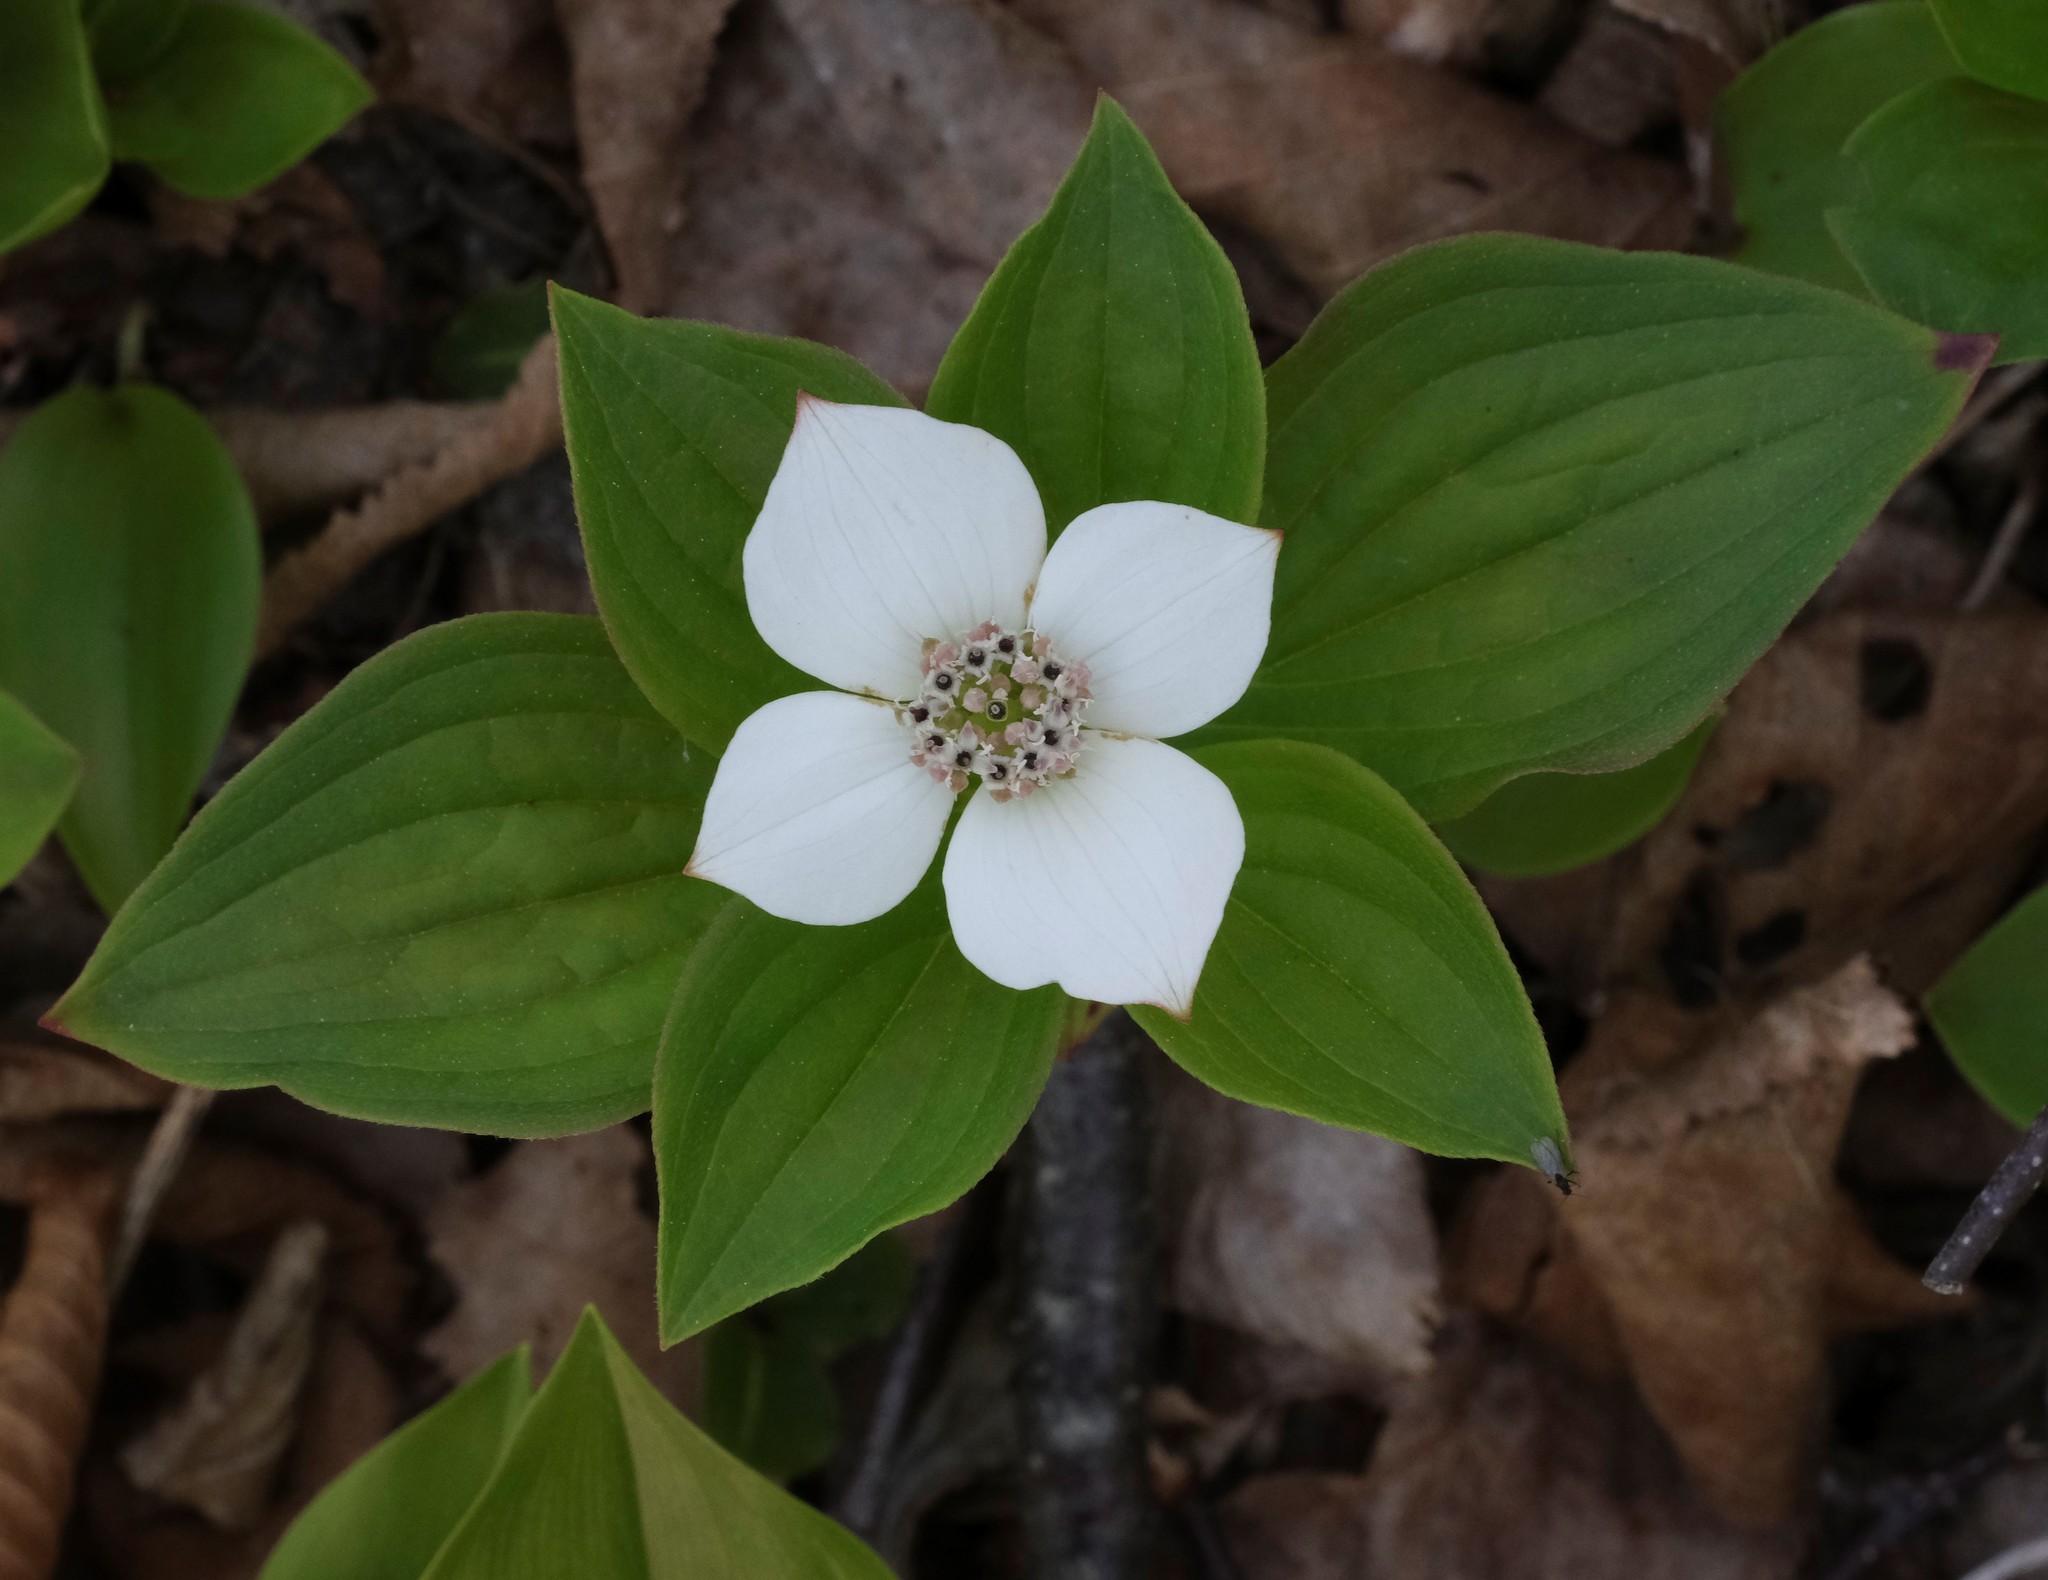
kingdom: Plantae
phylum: Tracheophyta
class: Magnoliopsida
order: Cornales
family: Cornaceae
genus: Cornus
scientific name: Cornus canadensis
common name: Creeping dogwood
